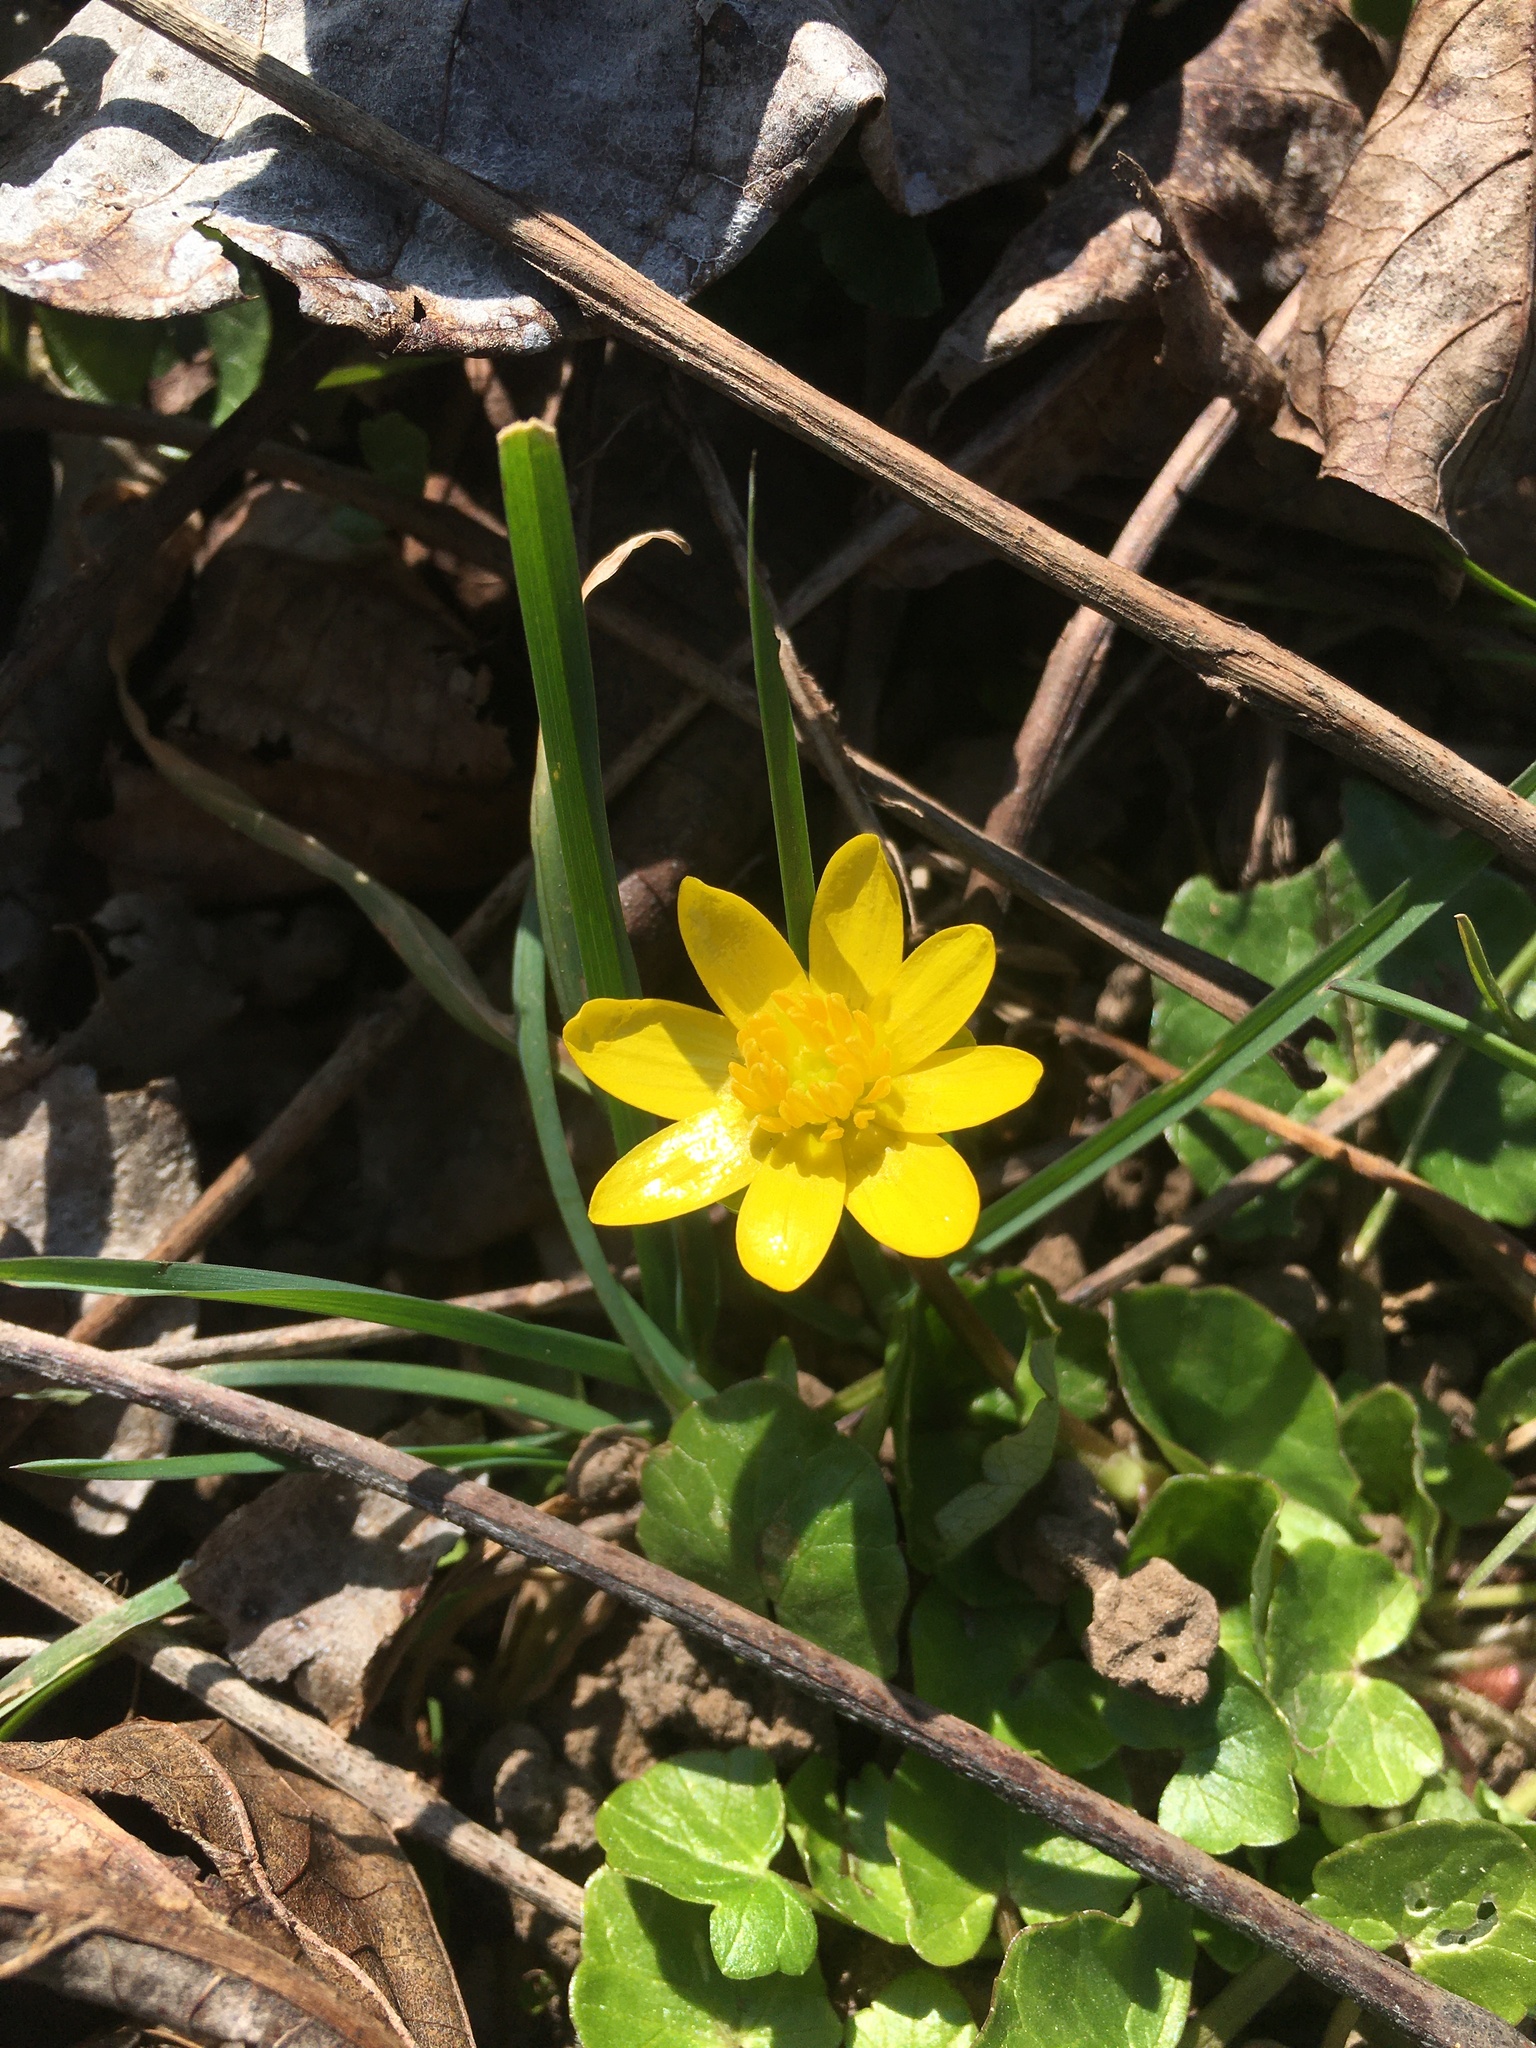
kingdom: Plantae
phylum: Tracheophyta
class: Magnoliopsida
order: Ranunculales
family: Ranunculaceae
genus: Ficaria
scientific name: Ficaria verna
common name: Lesser celandine
